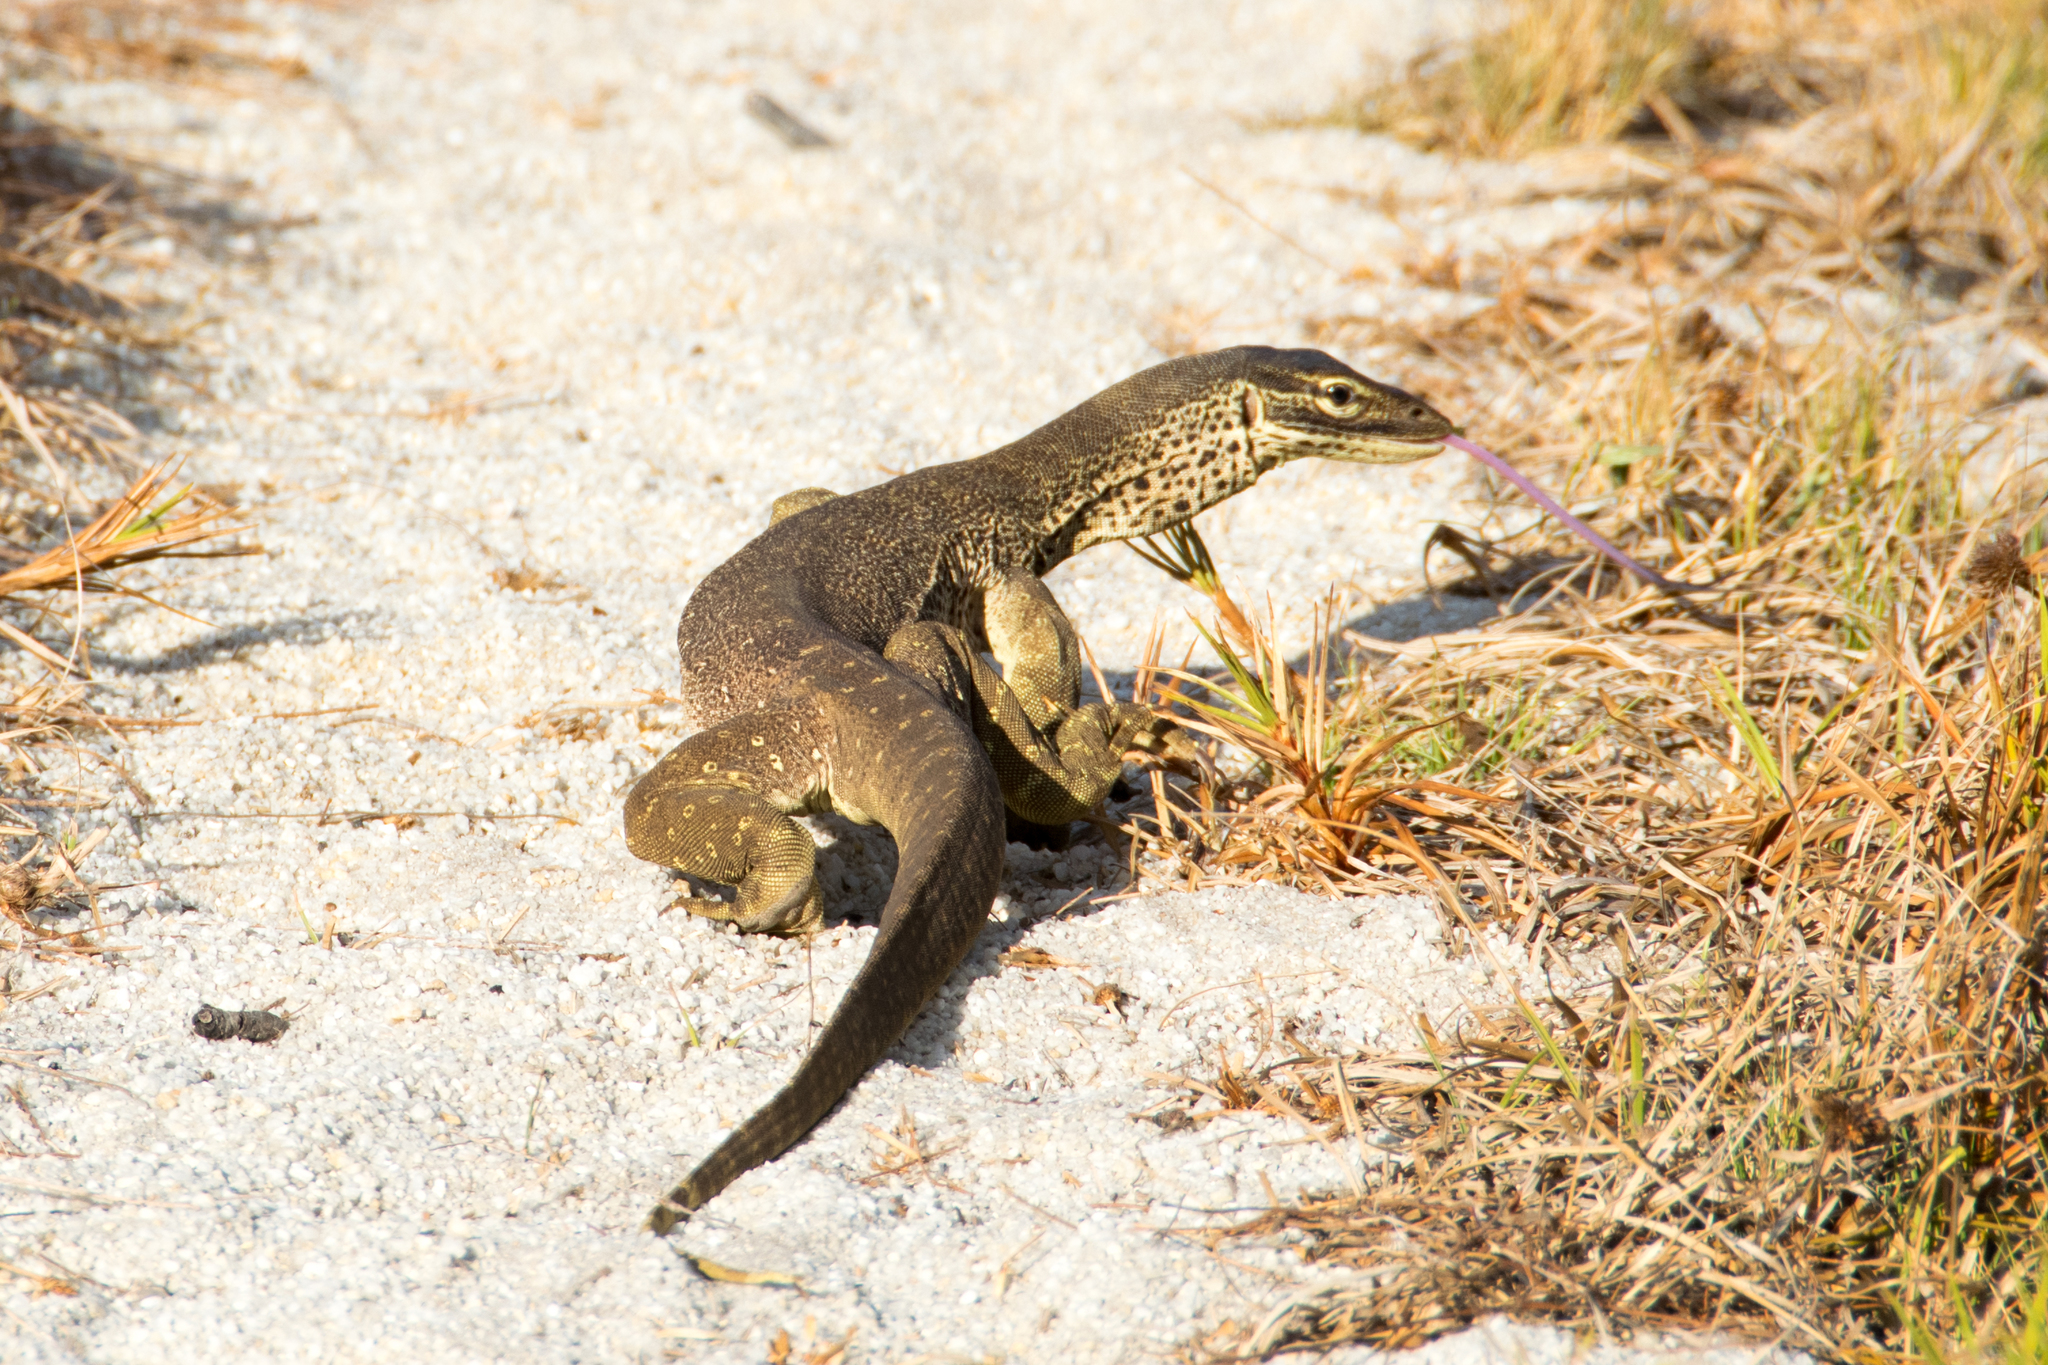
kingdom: Animalia
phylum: Chordata
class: Squamata
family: Varanidae
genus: Varanus
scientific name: Varanus panoptes
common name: Yellow-spotted monitor
